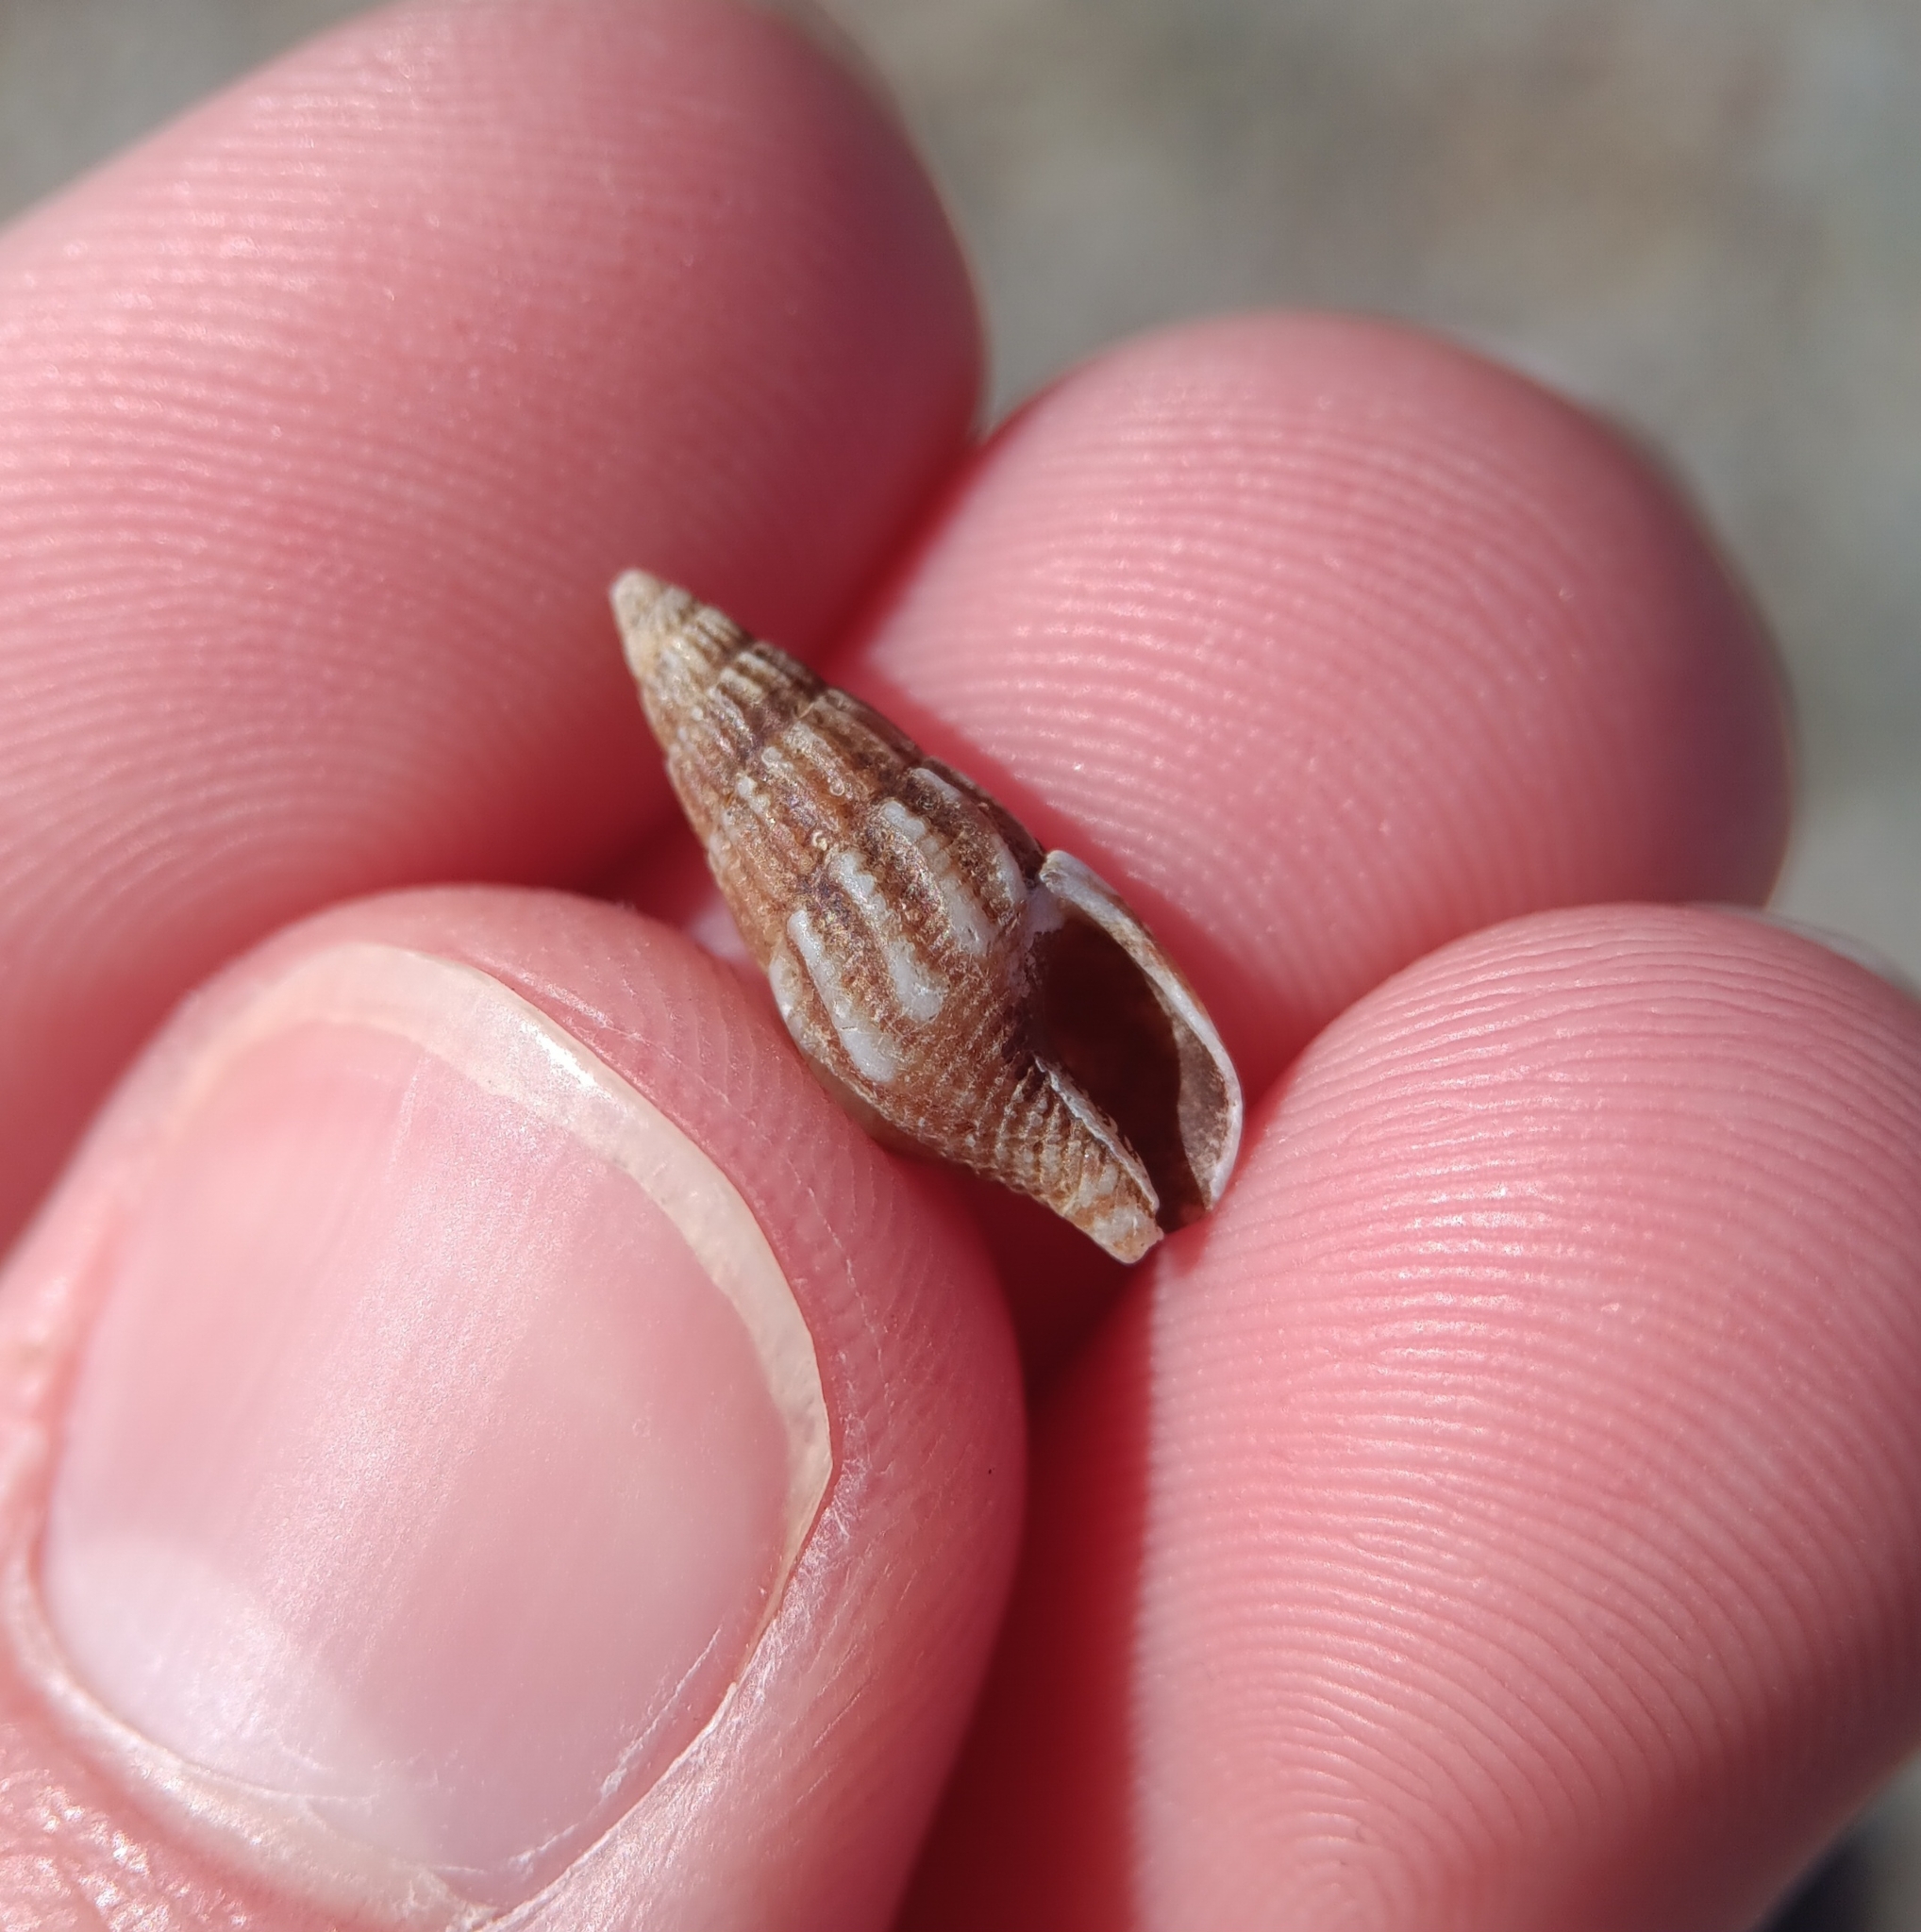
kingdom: Animalia
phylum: Mollusca
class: Gastropoda
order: Neogastropoda
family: Columbellidae
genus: Costoanachis
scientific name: Costoanachis translirata
